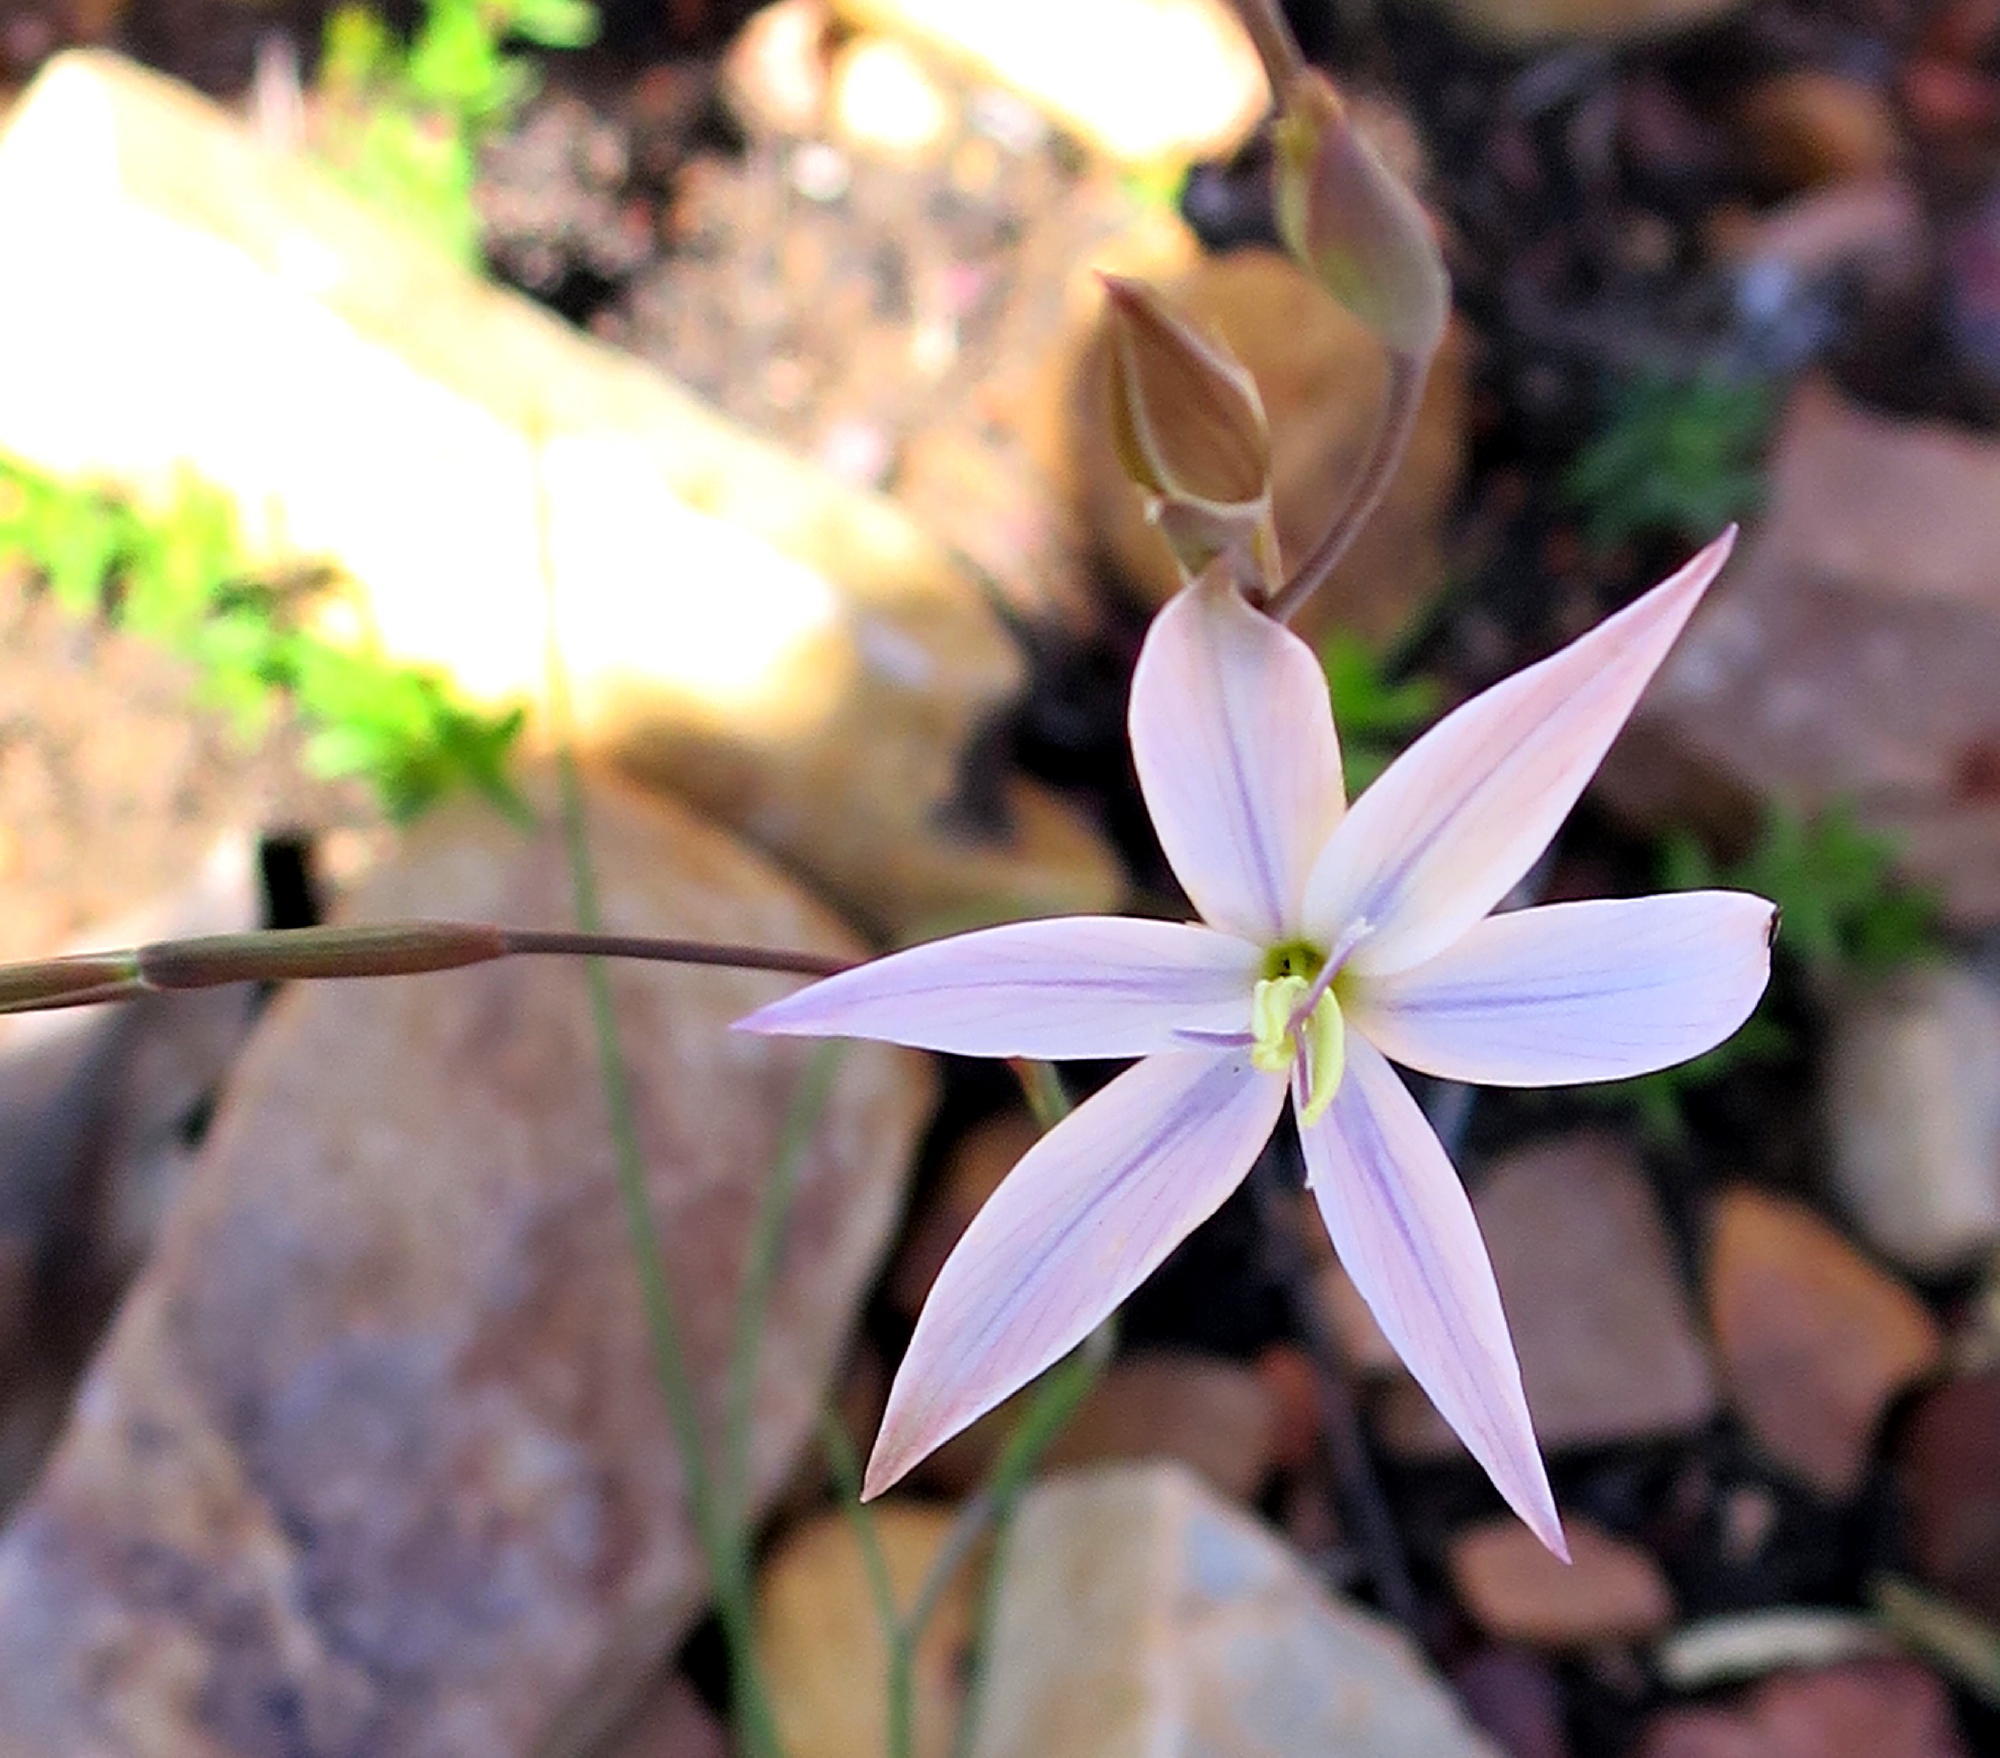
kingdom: Plantae
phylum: Tracheophyta
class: Liliopsida
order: Asparagales
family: Iridaceae
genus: Gladiolus
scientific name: Gladiolus stellatus
